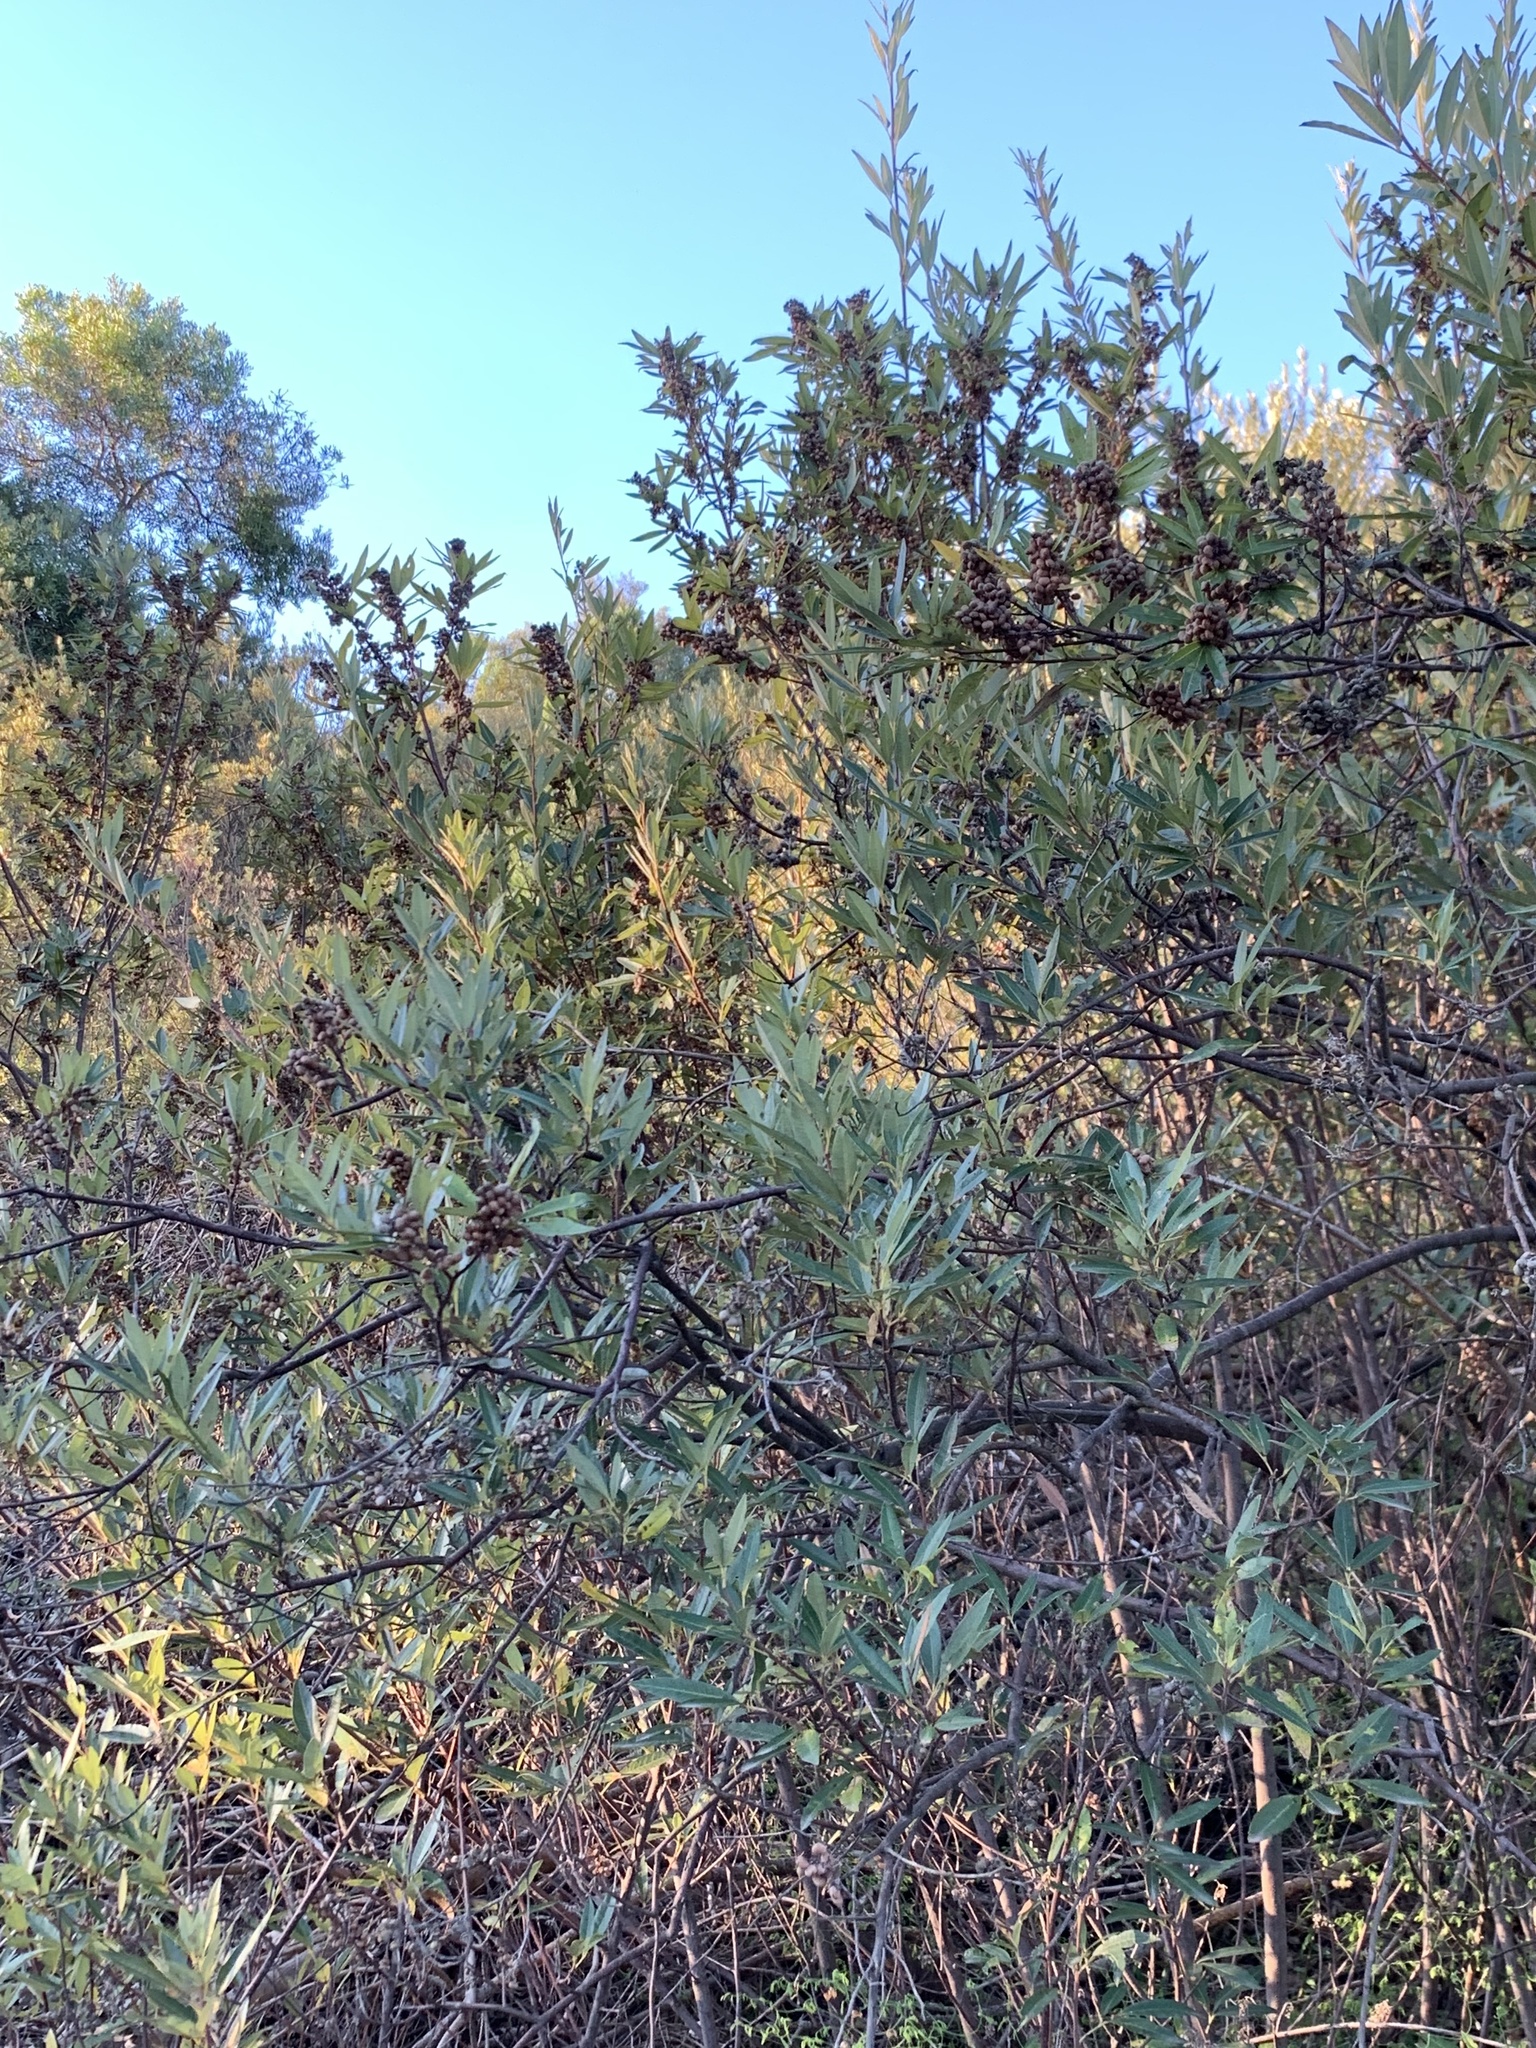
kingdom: Plantae
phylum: Tracheophyta
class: Magnoliopsida
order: Sapindales
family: Anacardiaceae
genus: Searsia
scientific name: Searsia angustifolia
